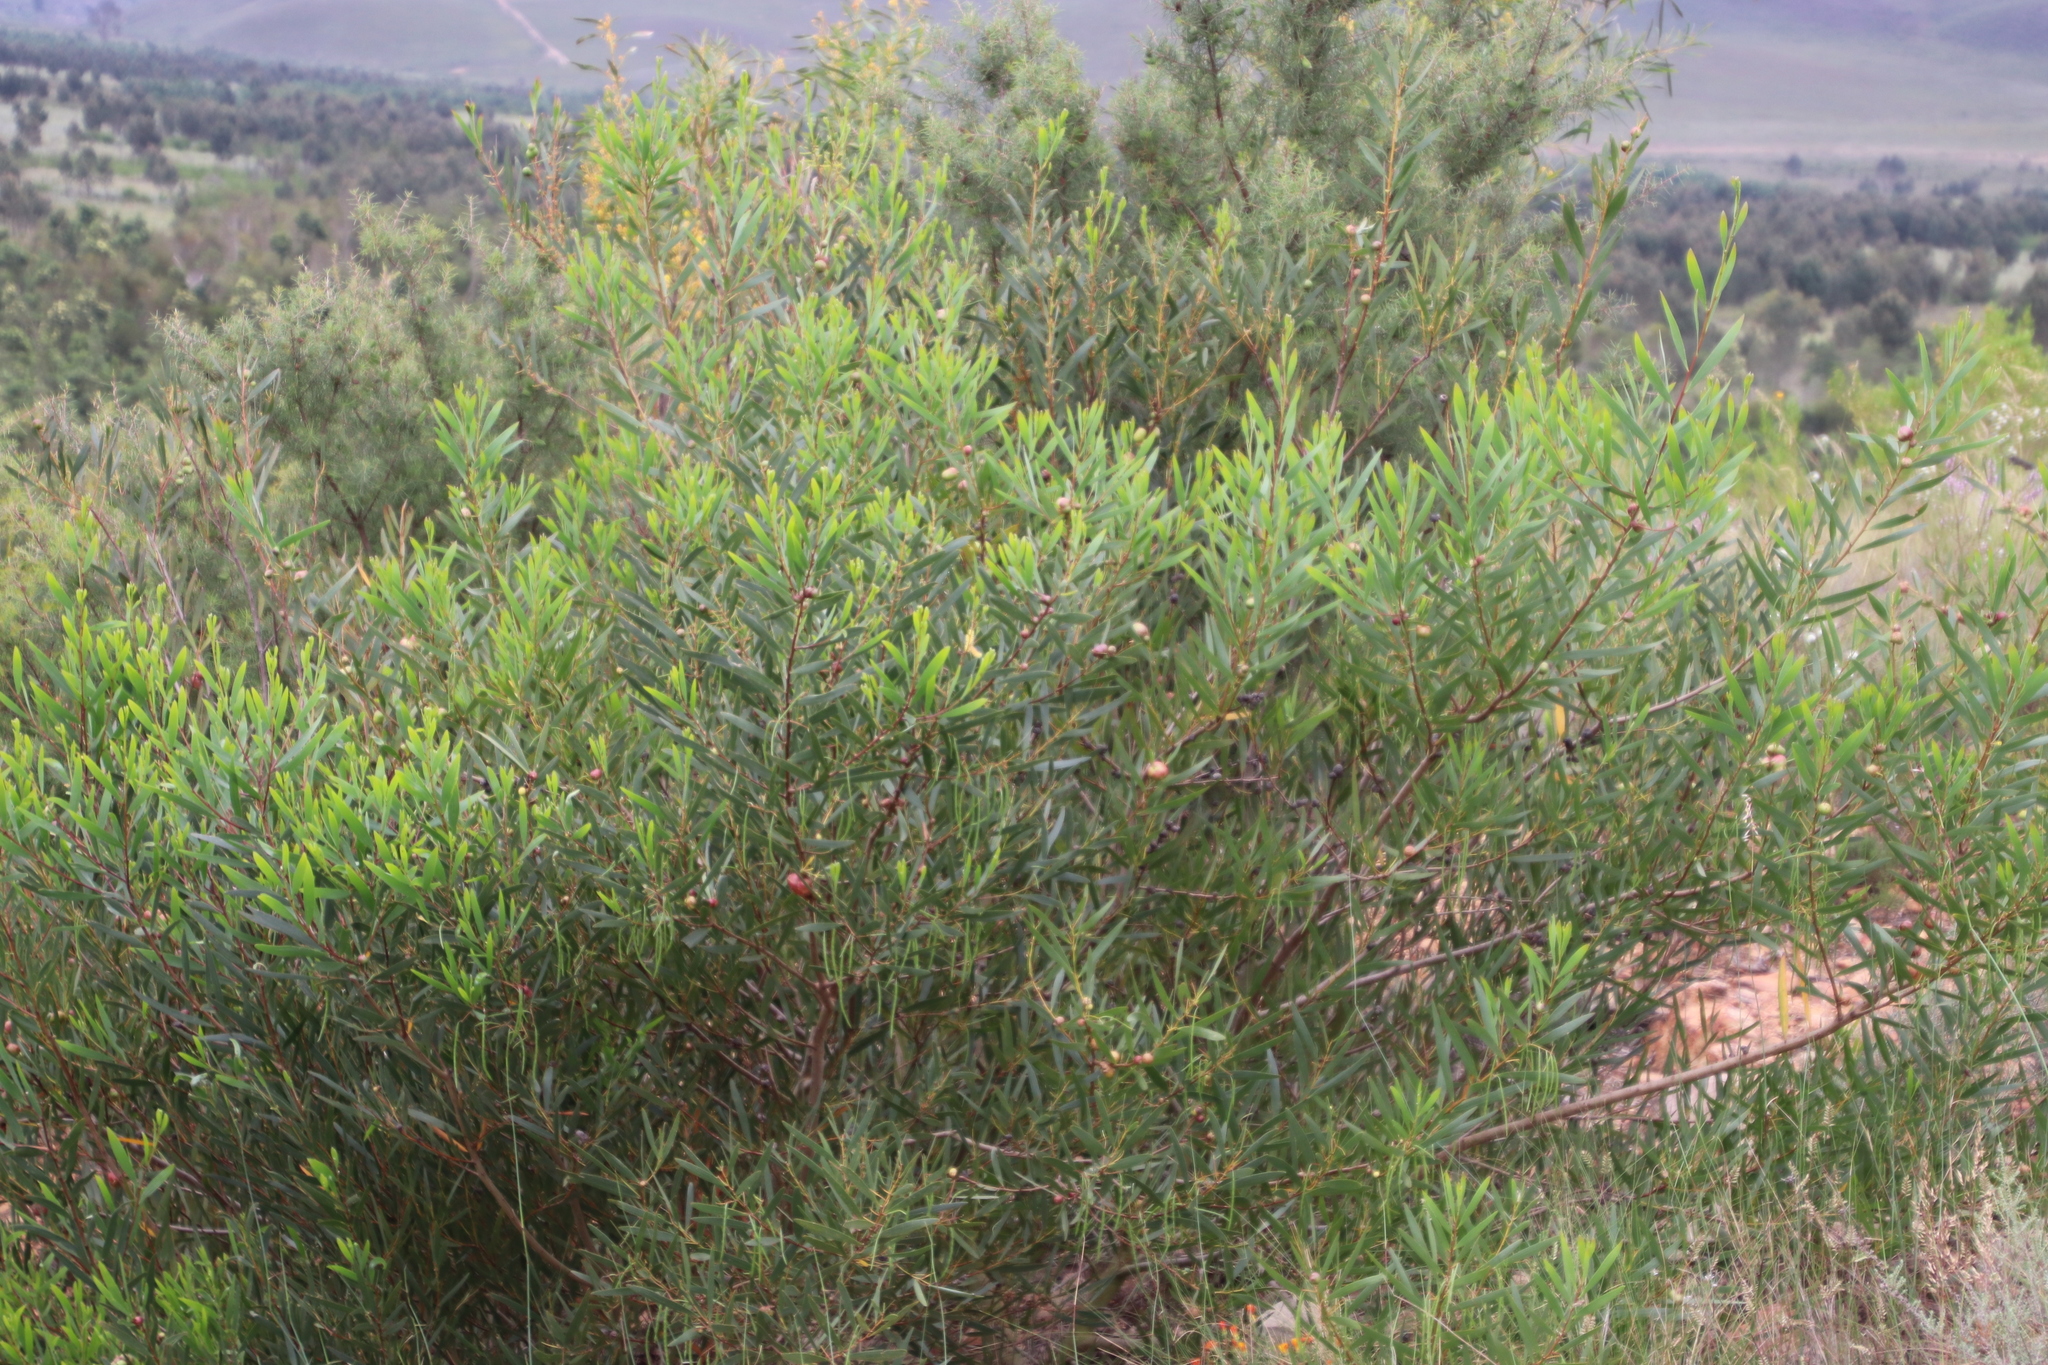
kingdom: Plantae
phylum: Tracheophyta
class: Magnoliopsida
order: Fabales
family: Fabaceae
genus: Acacia
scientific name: Acacia longifolia
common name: Sydney golden wattle
